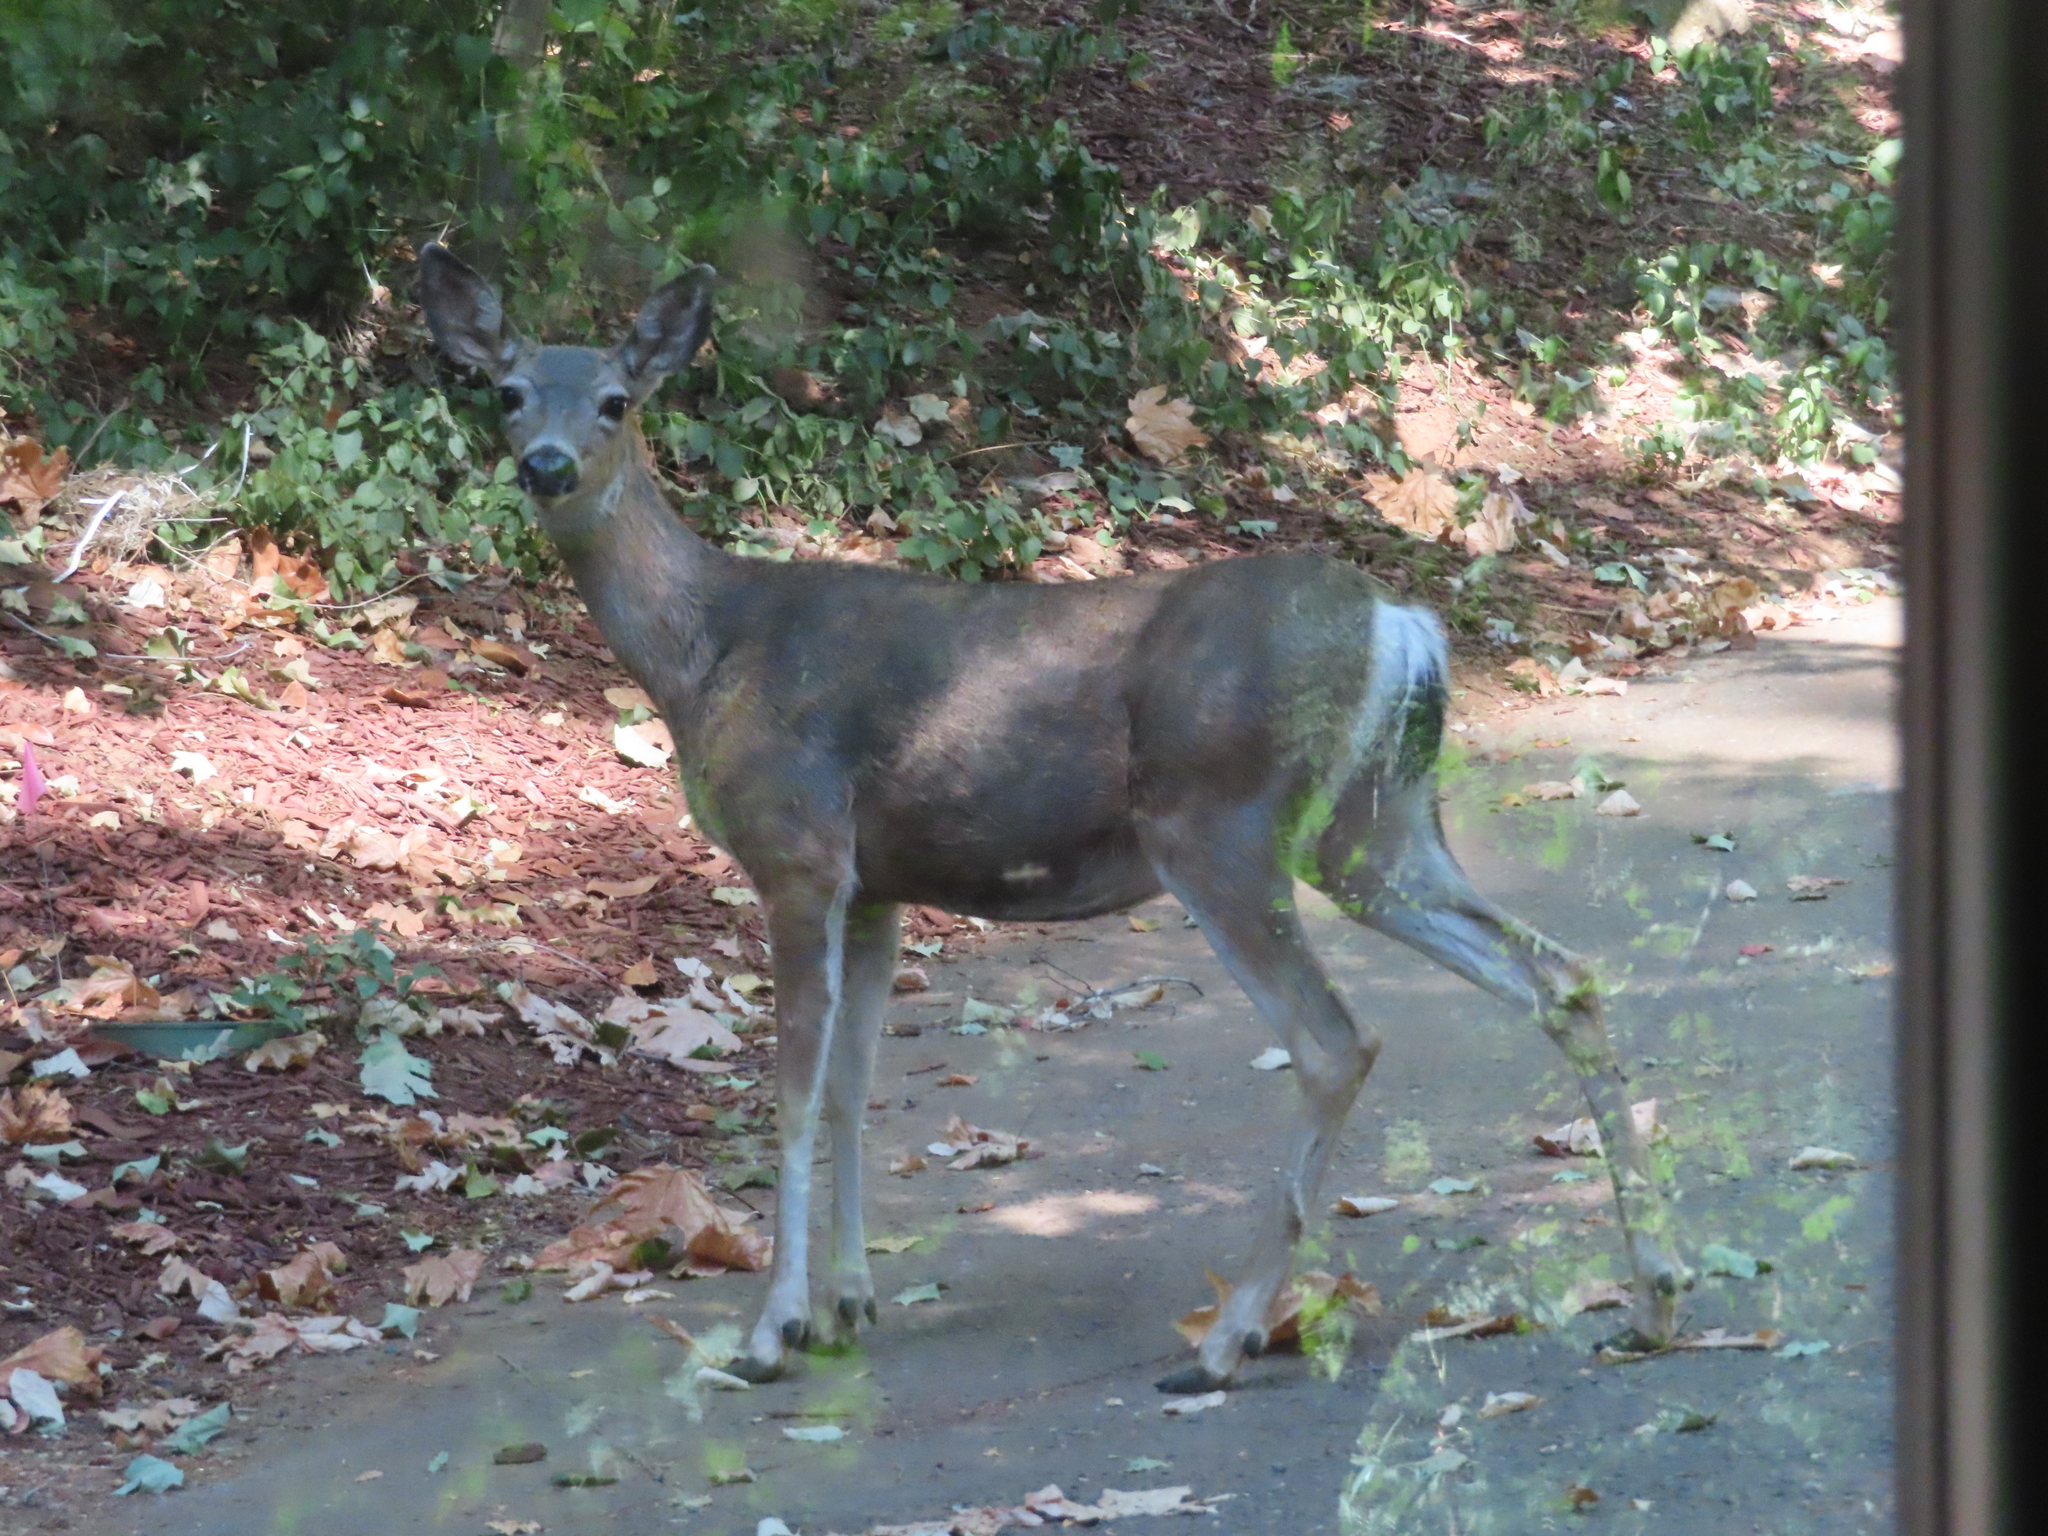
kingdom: Animalia
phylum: Chordata
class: Mammalia
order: Artiodactyla
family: Cervidae
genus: Odocoileus
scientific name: Odocoileus hemionus
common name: Mule deer
